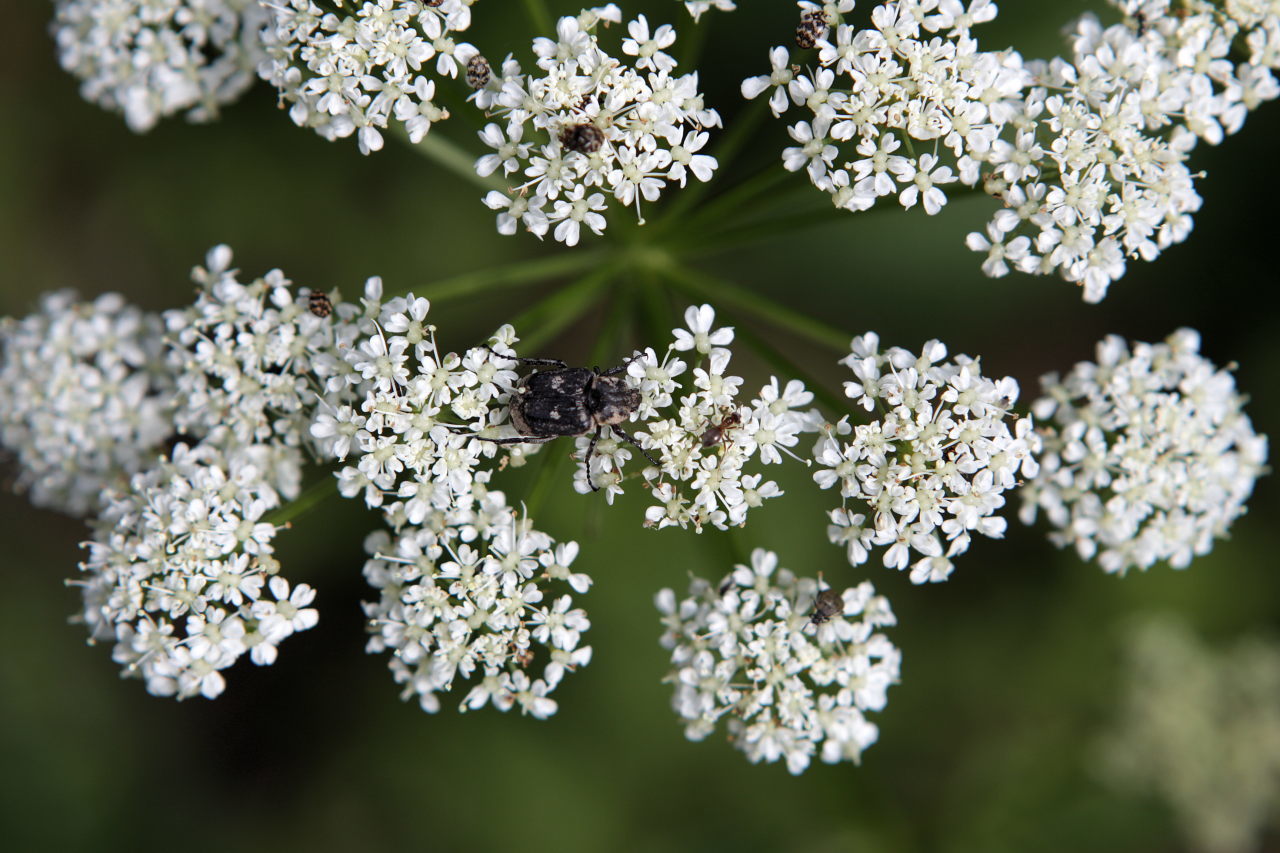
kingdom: Animalia
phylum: Arthropoda
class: Insecta
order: Coleoptera
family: Scarabaeidae
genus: Valgus
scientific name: Valgus hemipterus
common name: Bug flower chafer
